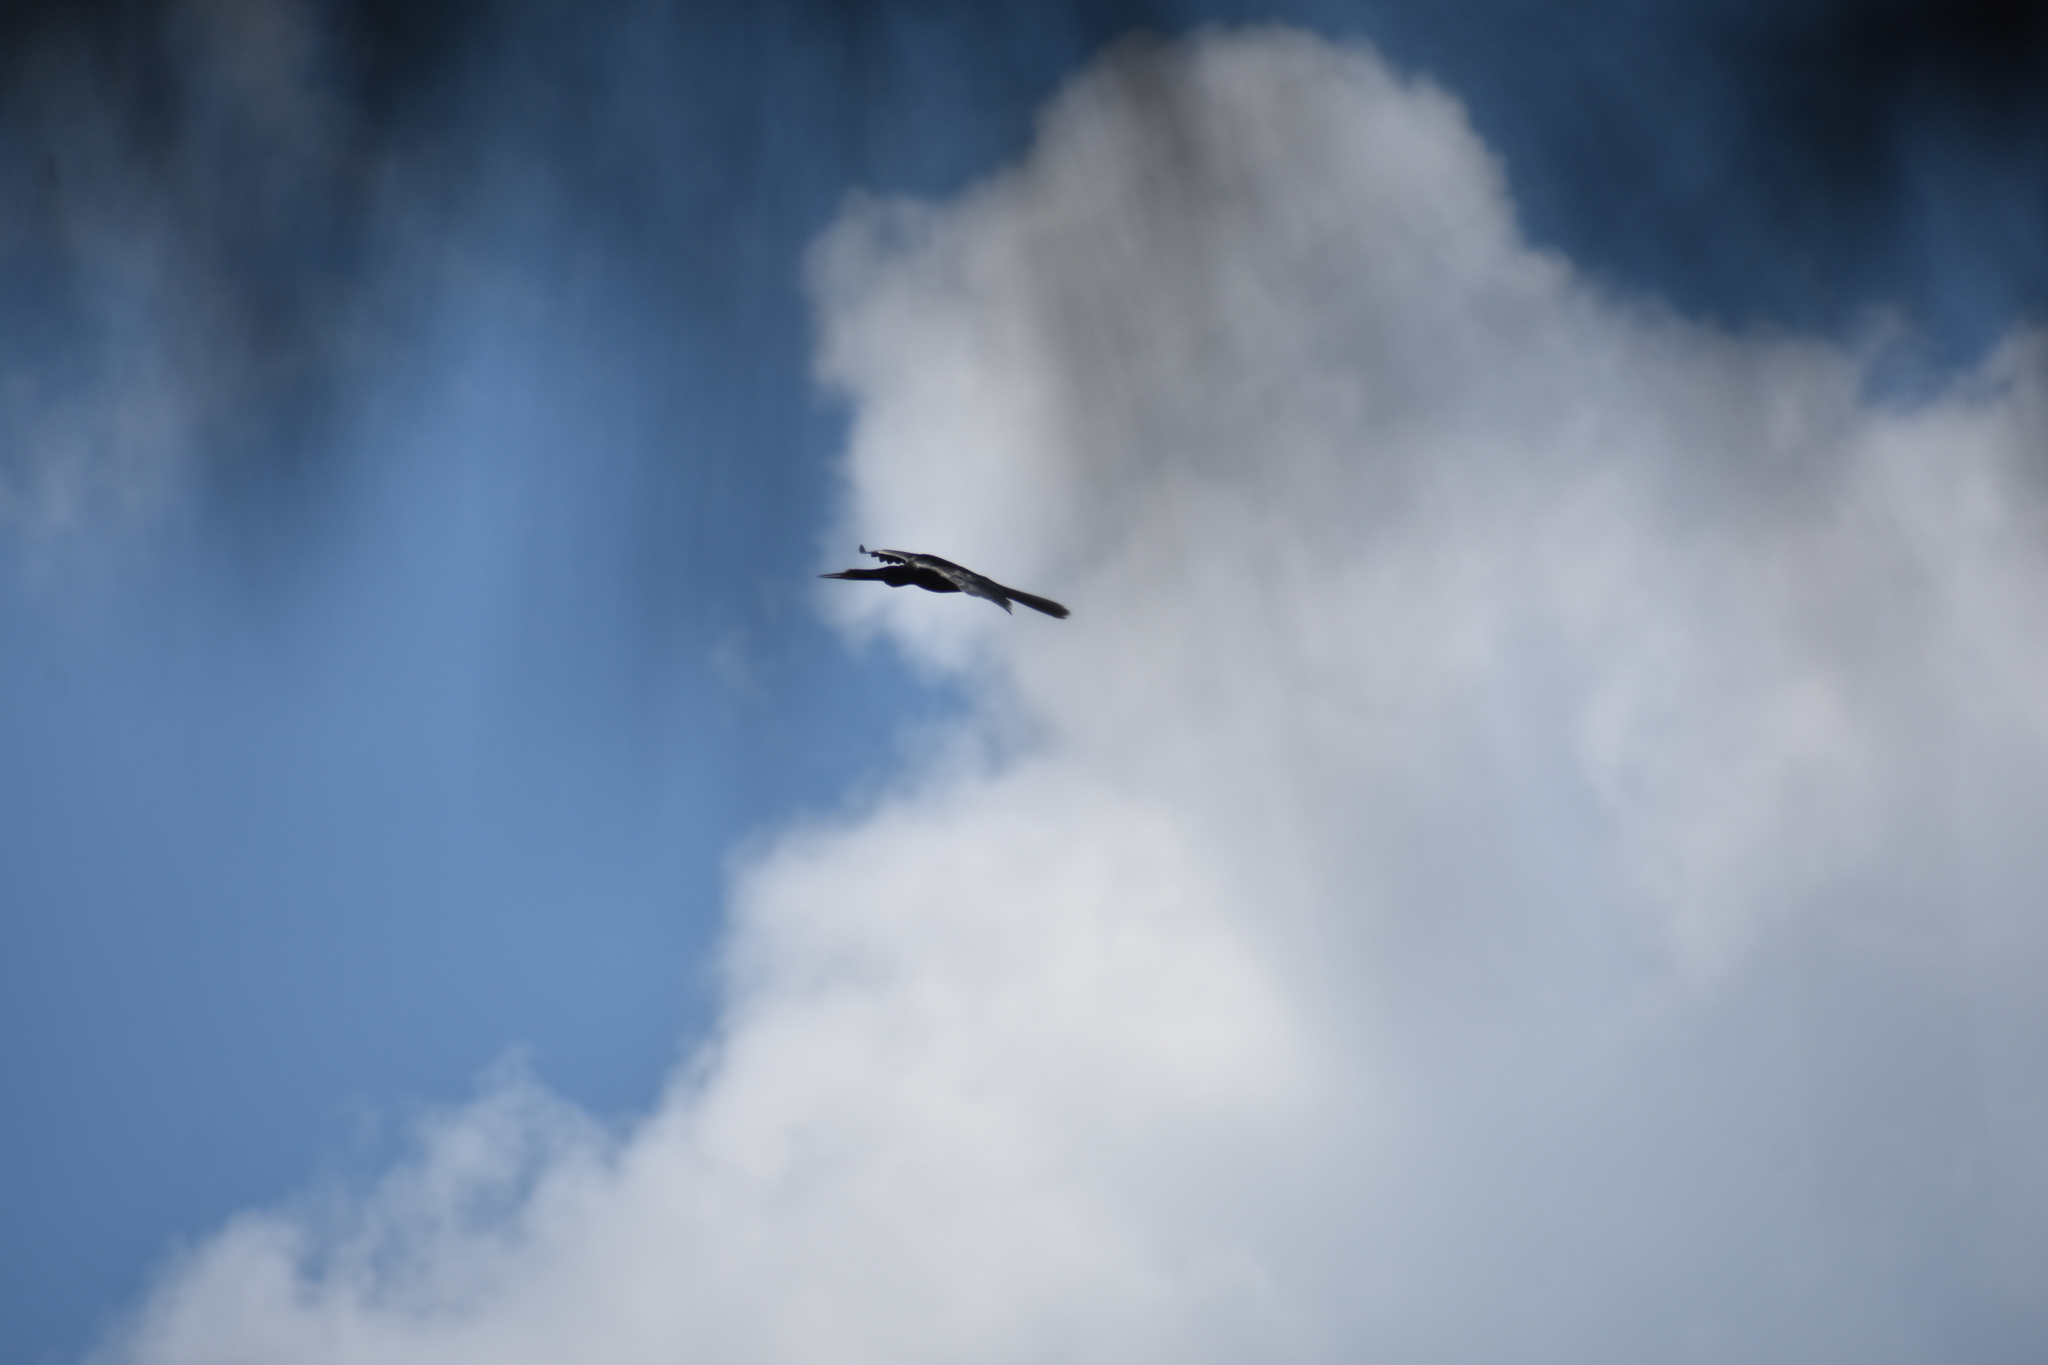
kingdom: Animalia
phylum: Chordata
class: Aves
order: Suliformes
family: Anhingidae
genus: Anhinga
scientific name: Anhinga anhinga
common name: Anhinga
